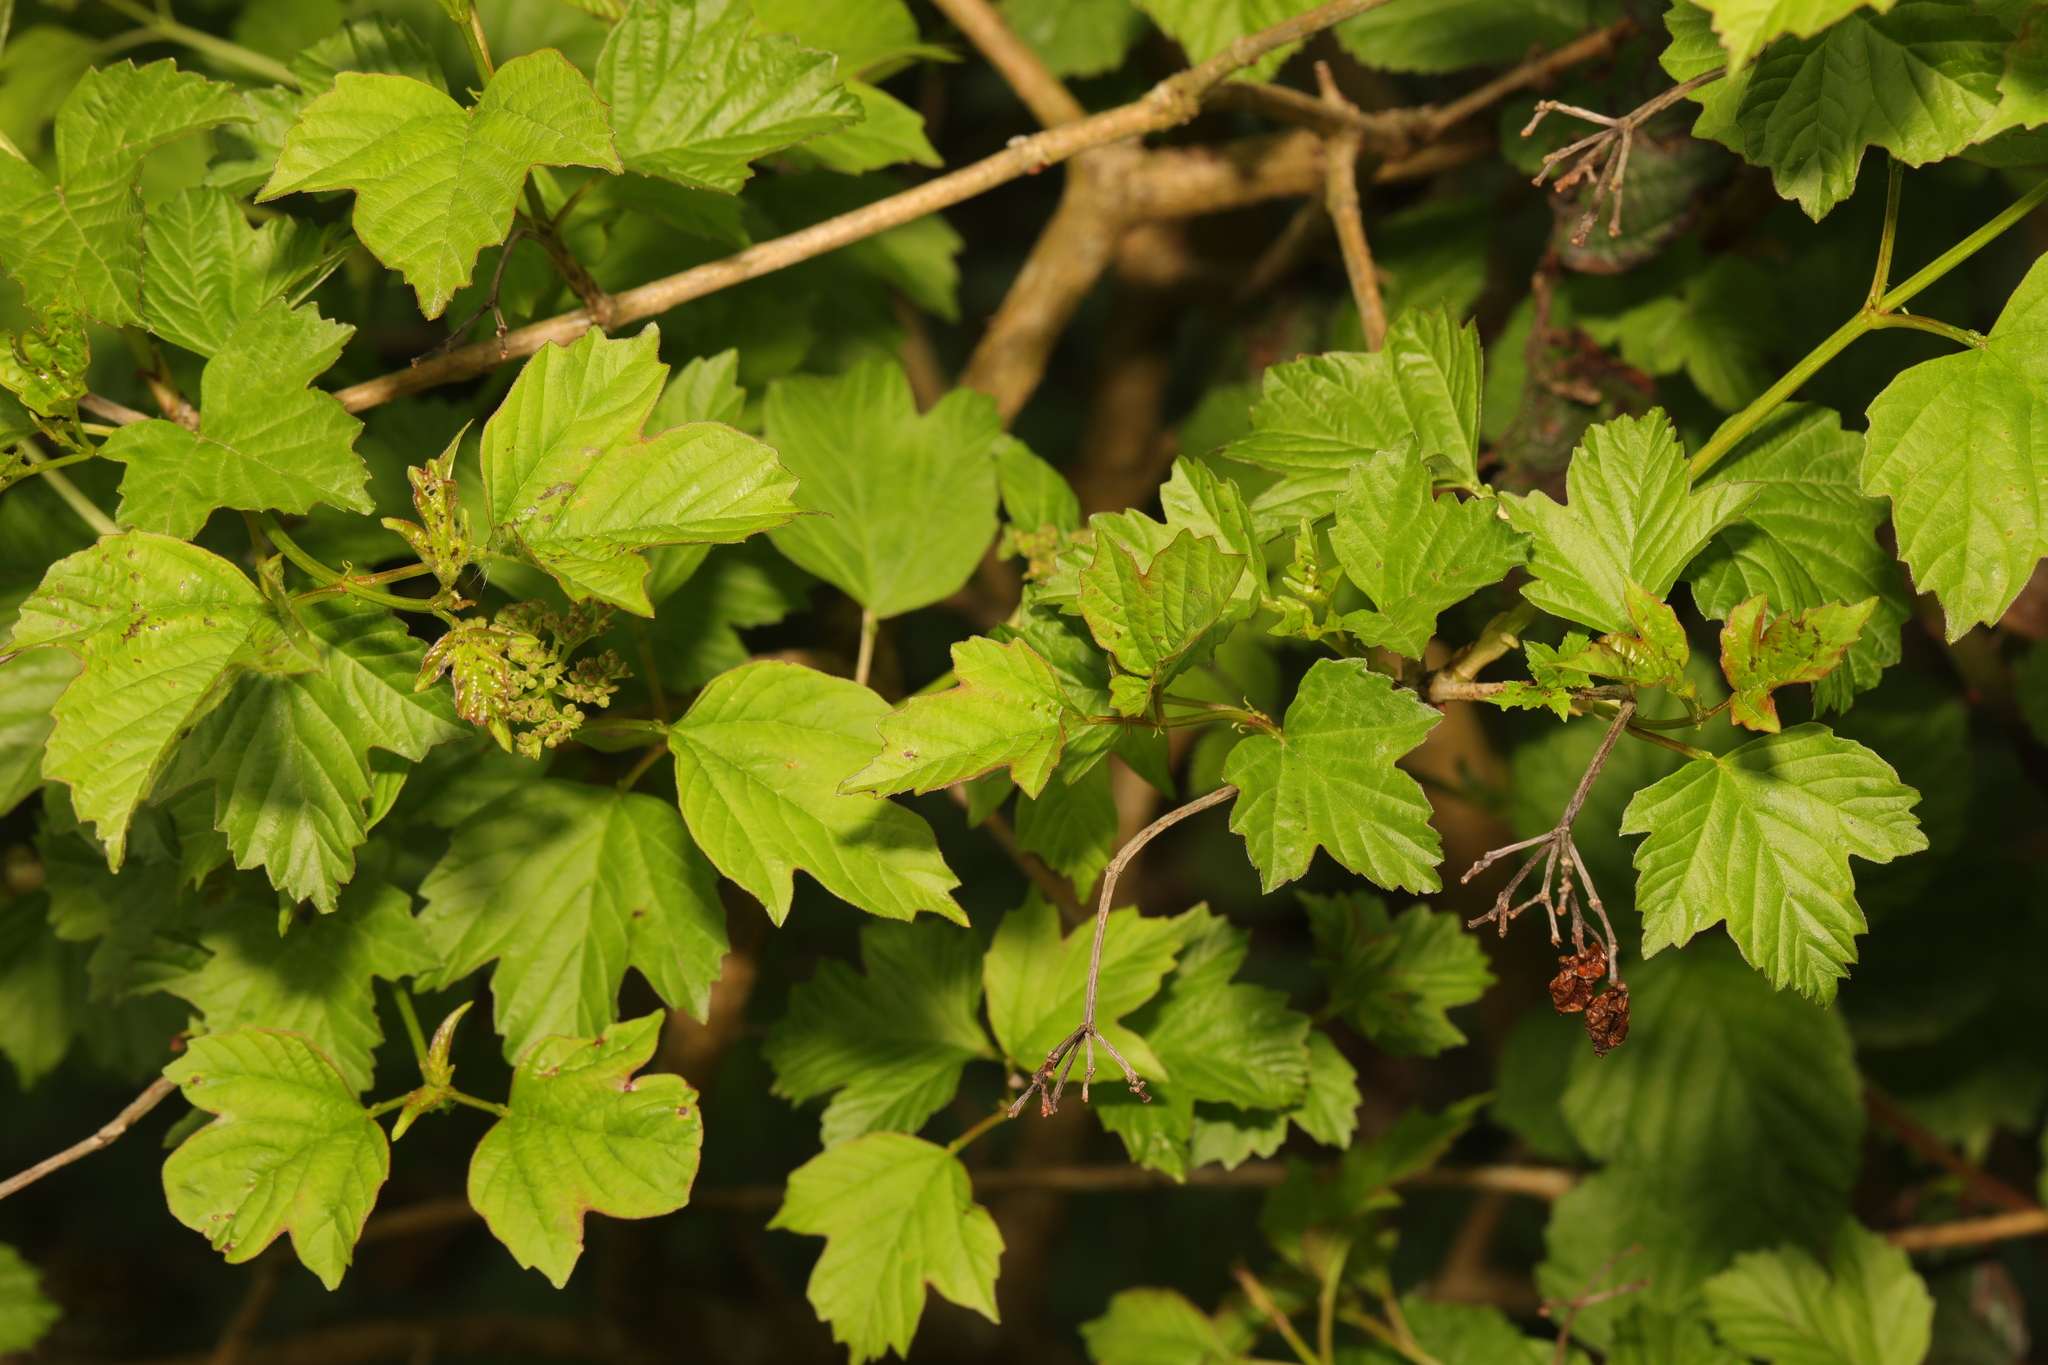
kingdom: Plantae
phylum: Tracheophyta
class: Magnoliopsida
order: Dipsacales
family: Viburnaceae
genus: Viburnum
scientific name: Viburnum opulus
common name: Guelder-rose
